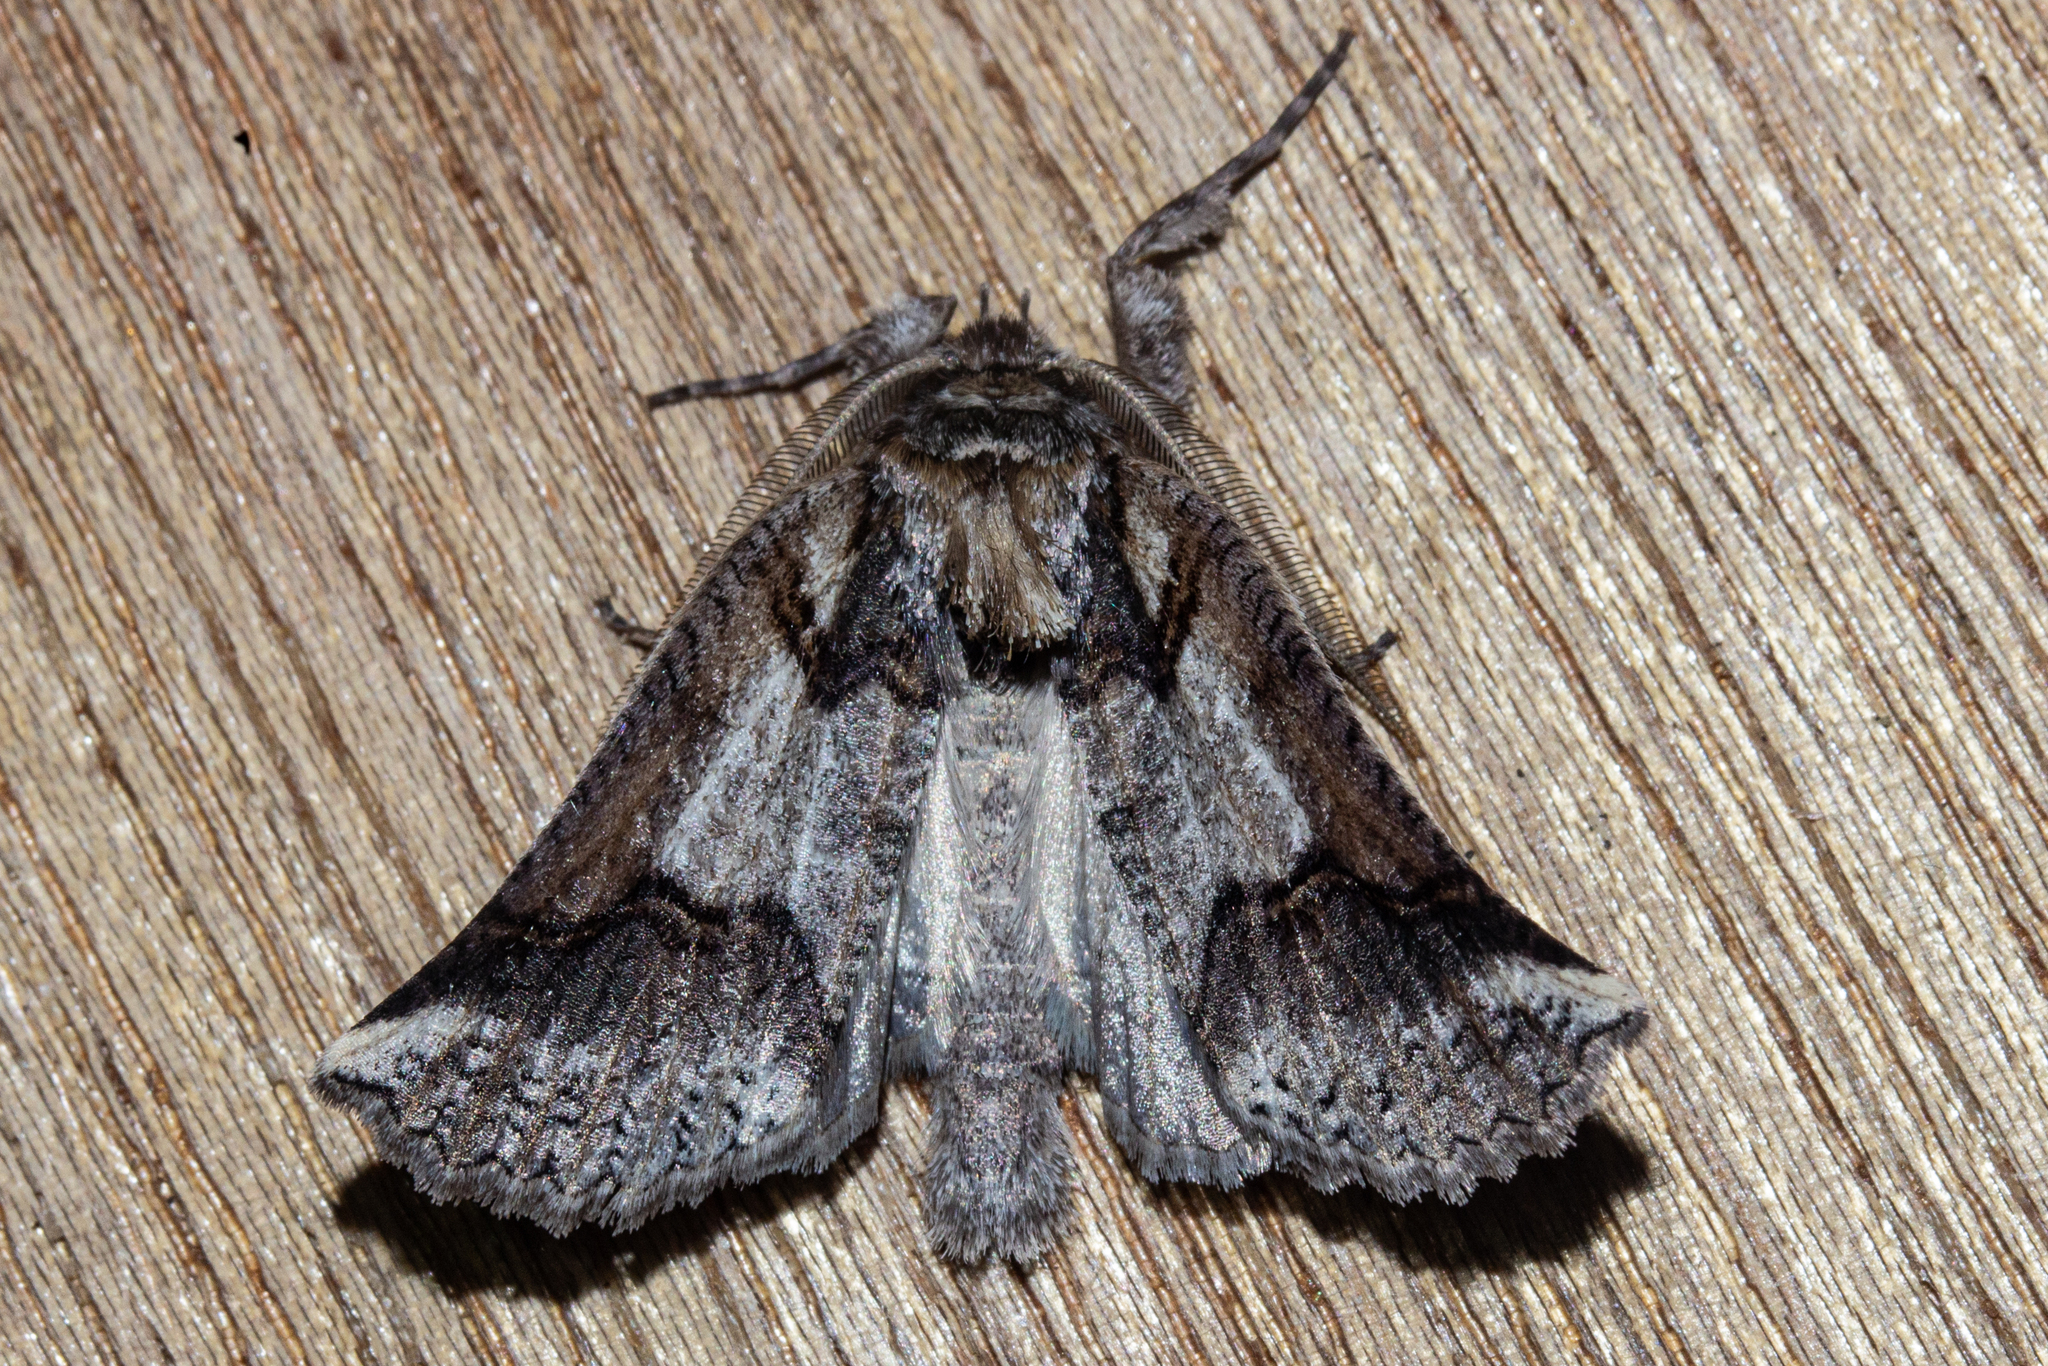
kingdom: Animalia
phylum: Arthropoda
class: Insecta
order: Lepidoptera
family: Geometridae
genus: Declana
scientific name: Declana
